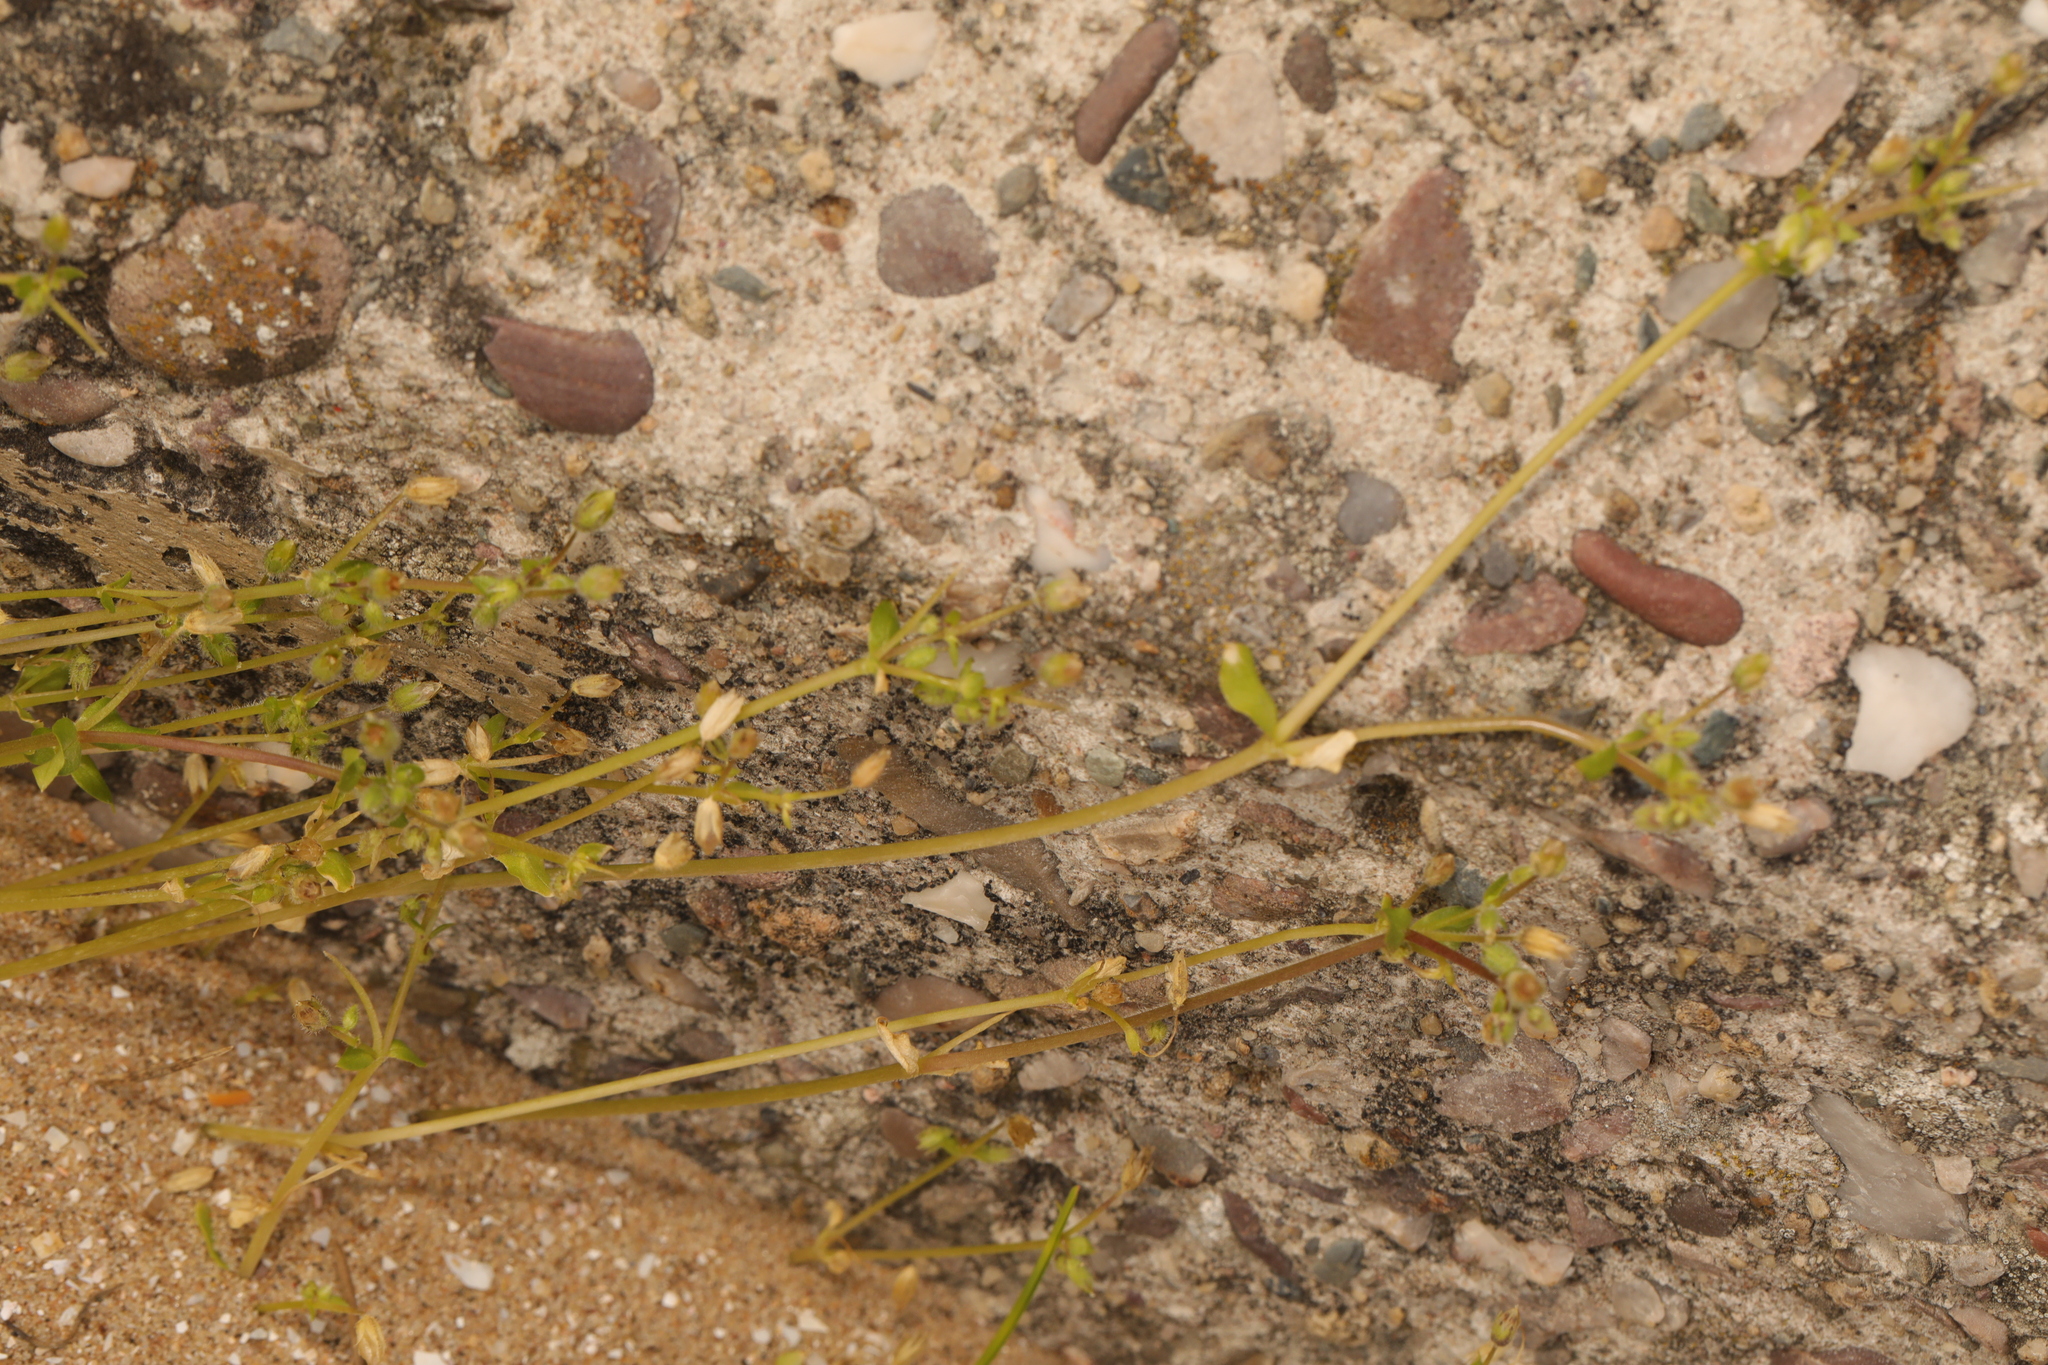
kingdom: Plantae
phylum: Tracheophyta
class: Magnoliopsida
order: Caryophyllales
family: Caryophyllaceae
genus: Stellaria
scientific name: Stellaria apetala
